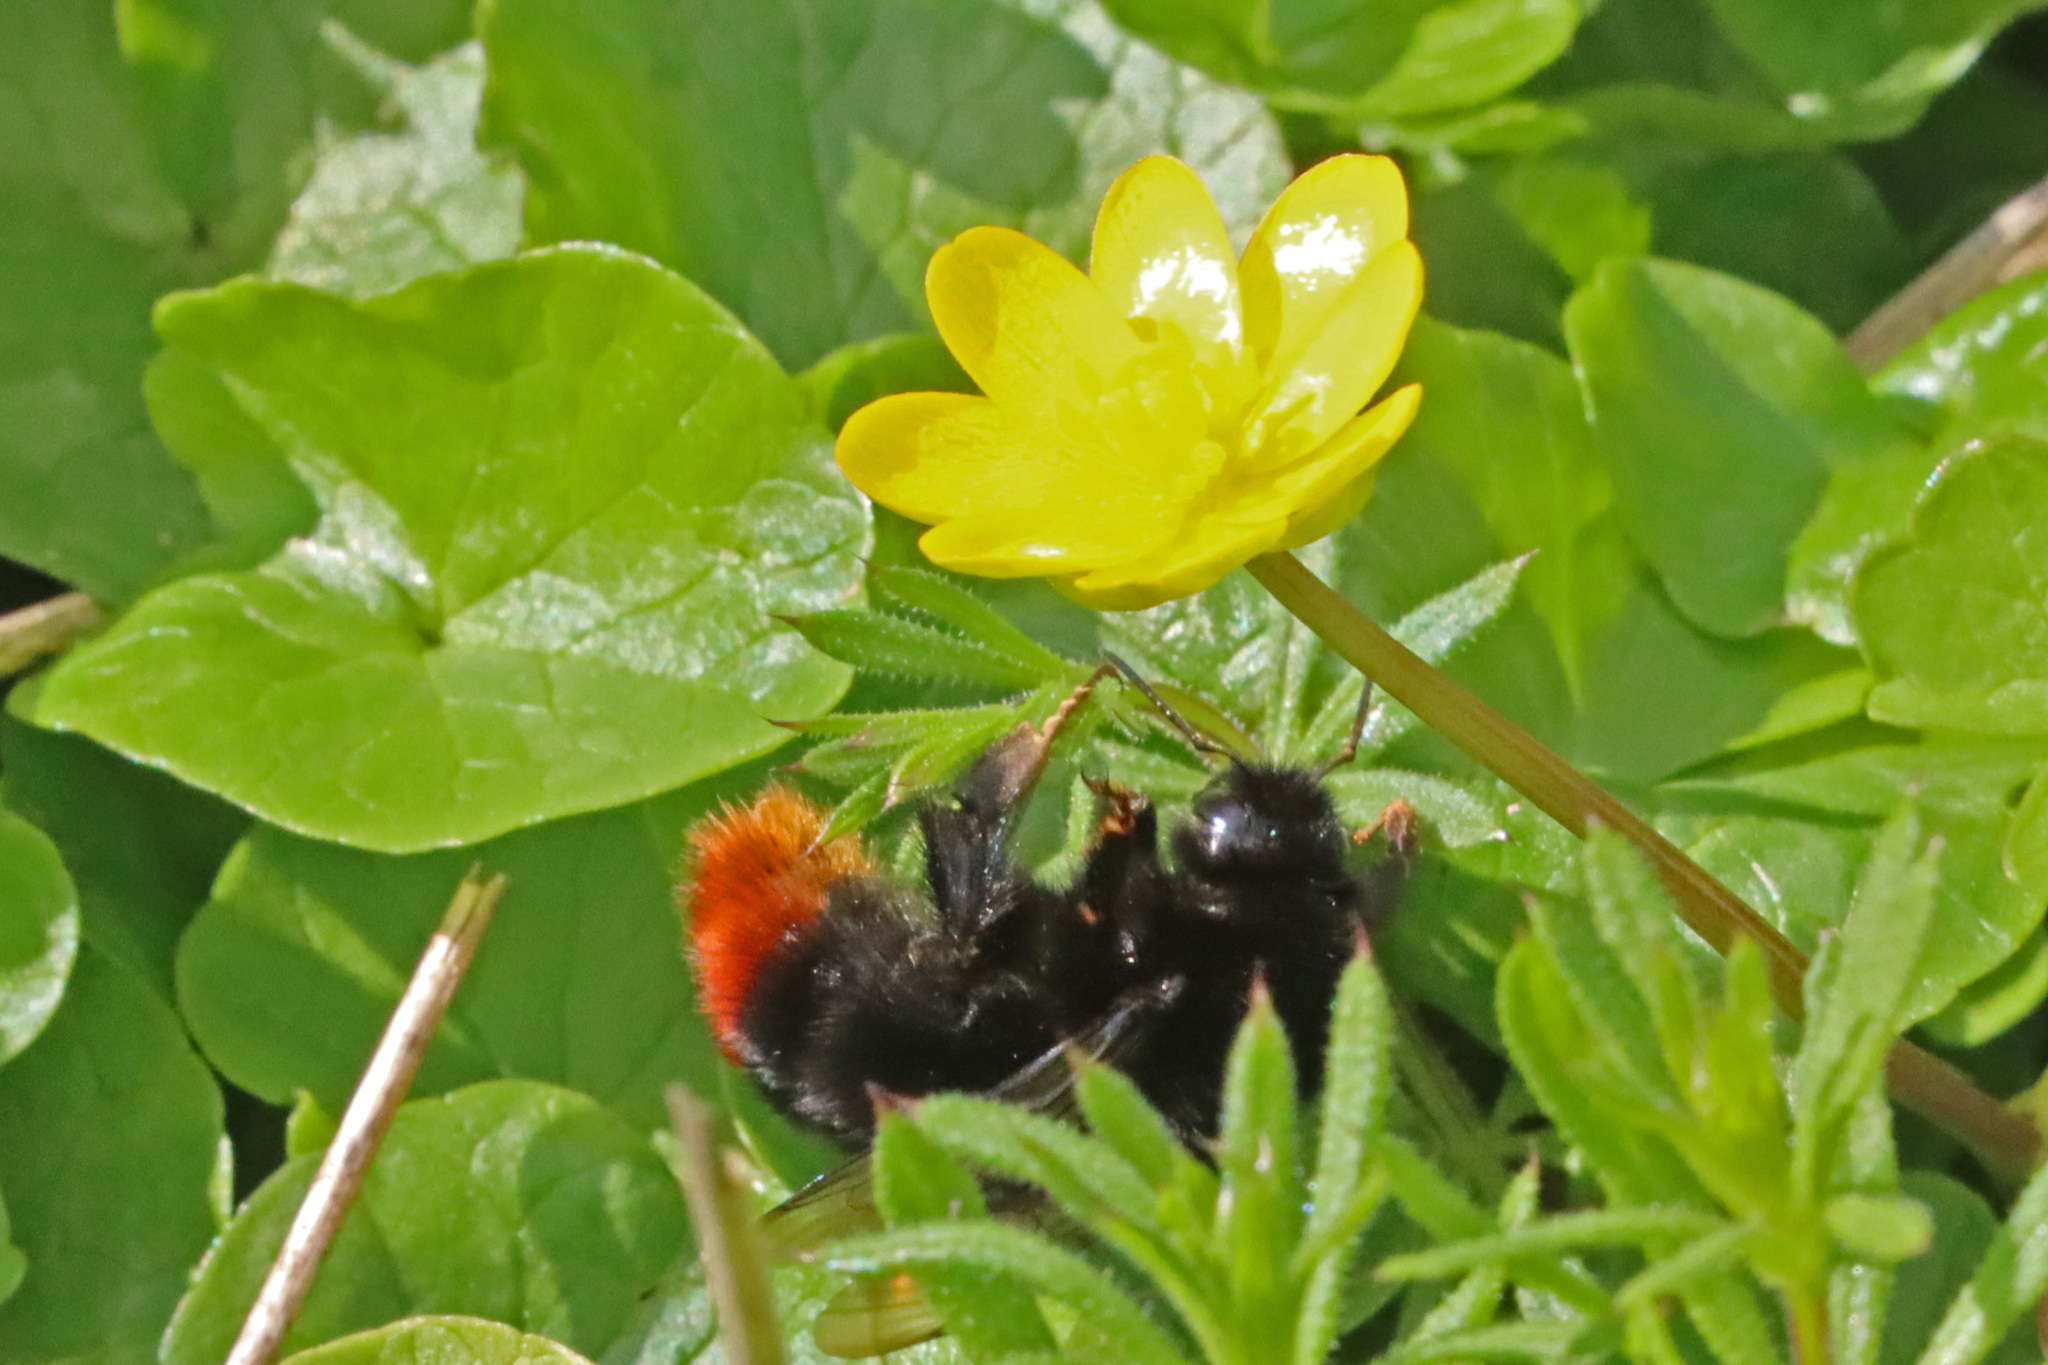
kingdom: Animalia
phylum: Arthropoda
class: Insecta
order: Hymenoptera
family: Apidae
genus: Bombus
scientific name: Bombus lapidarius
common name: Large red-tailed humble-bee
